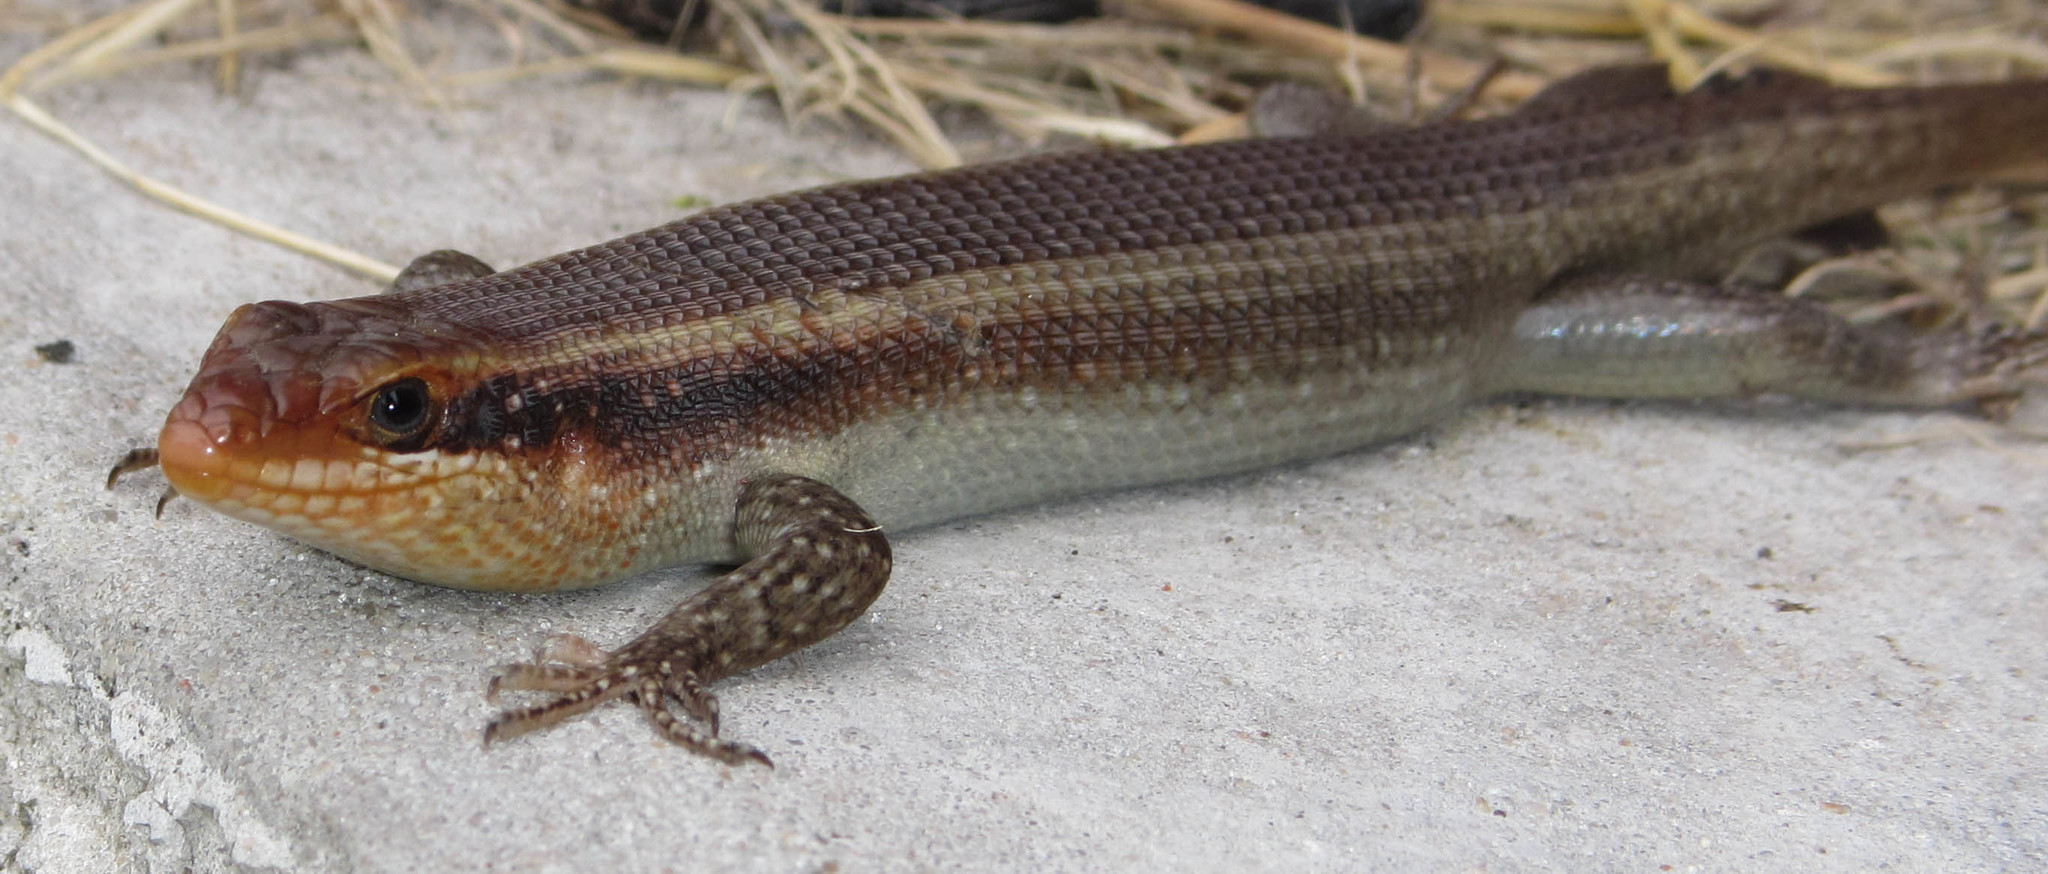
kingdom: Animalia
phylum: Chordata
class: Squamata
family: Scincidae
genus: Trachylepis
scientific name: Trachylepis wahlbergii
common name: Wahlberg’s striped skink
